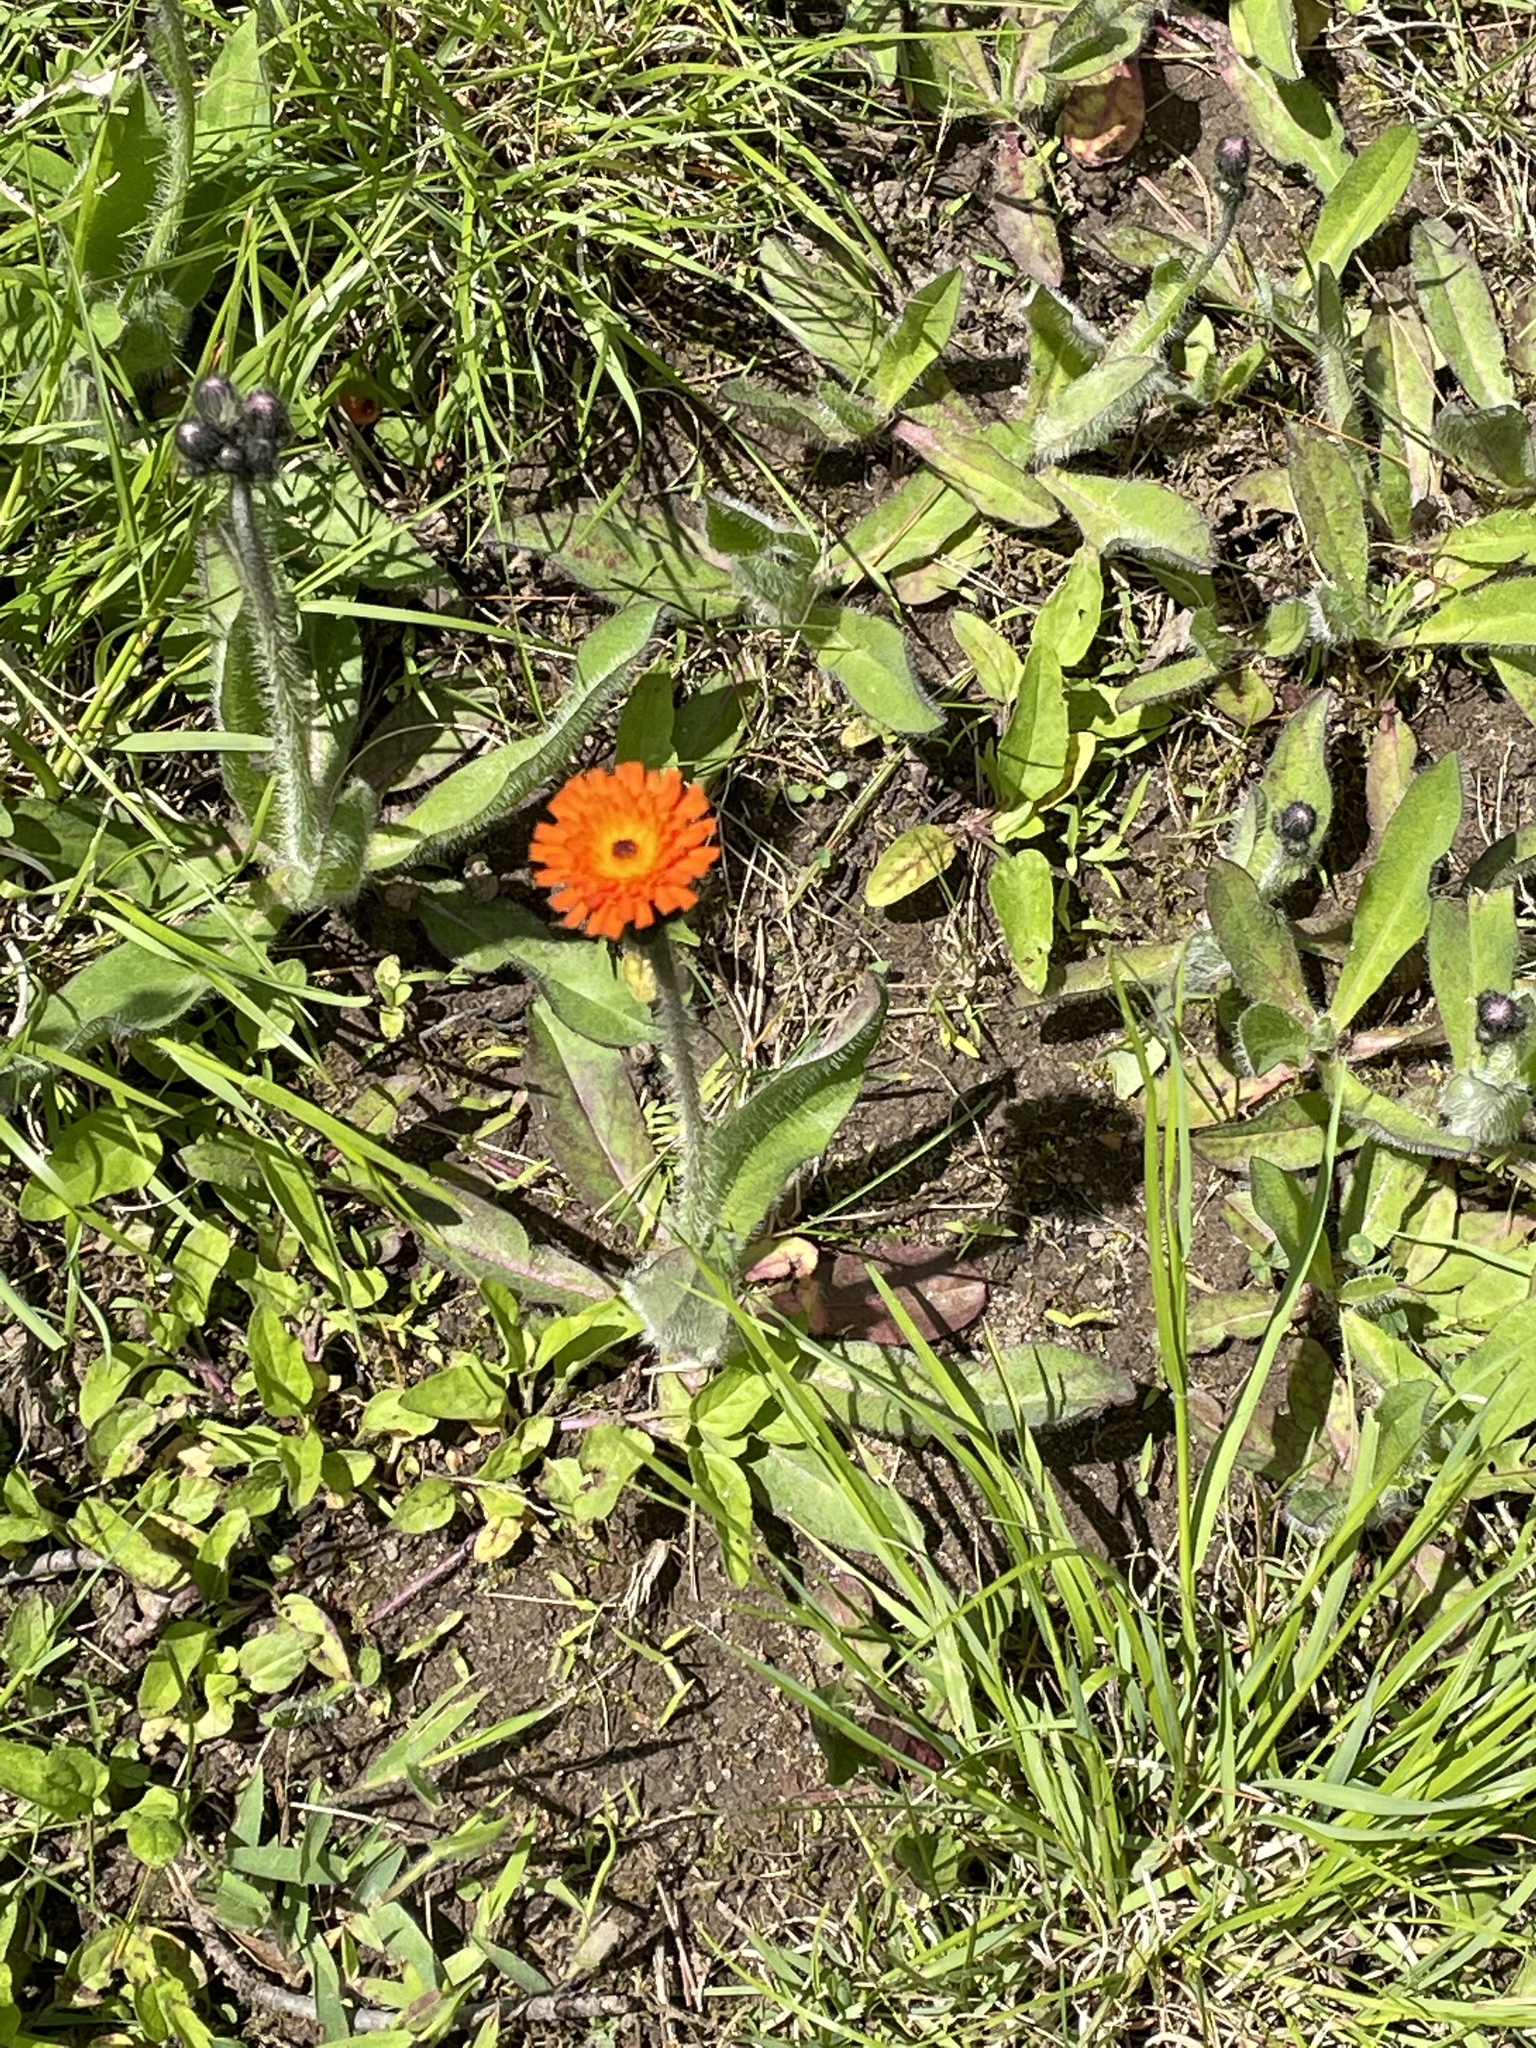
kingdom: Plantae
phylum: Tracheophyta
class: Magnoliopsida
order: Asterales
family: Asteraceae
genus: Pilosella
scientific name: Pilosella aurantiaca
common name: Fox-and-cubs
